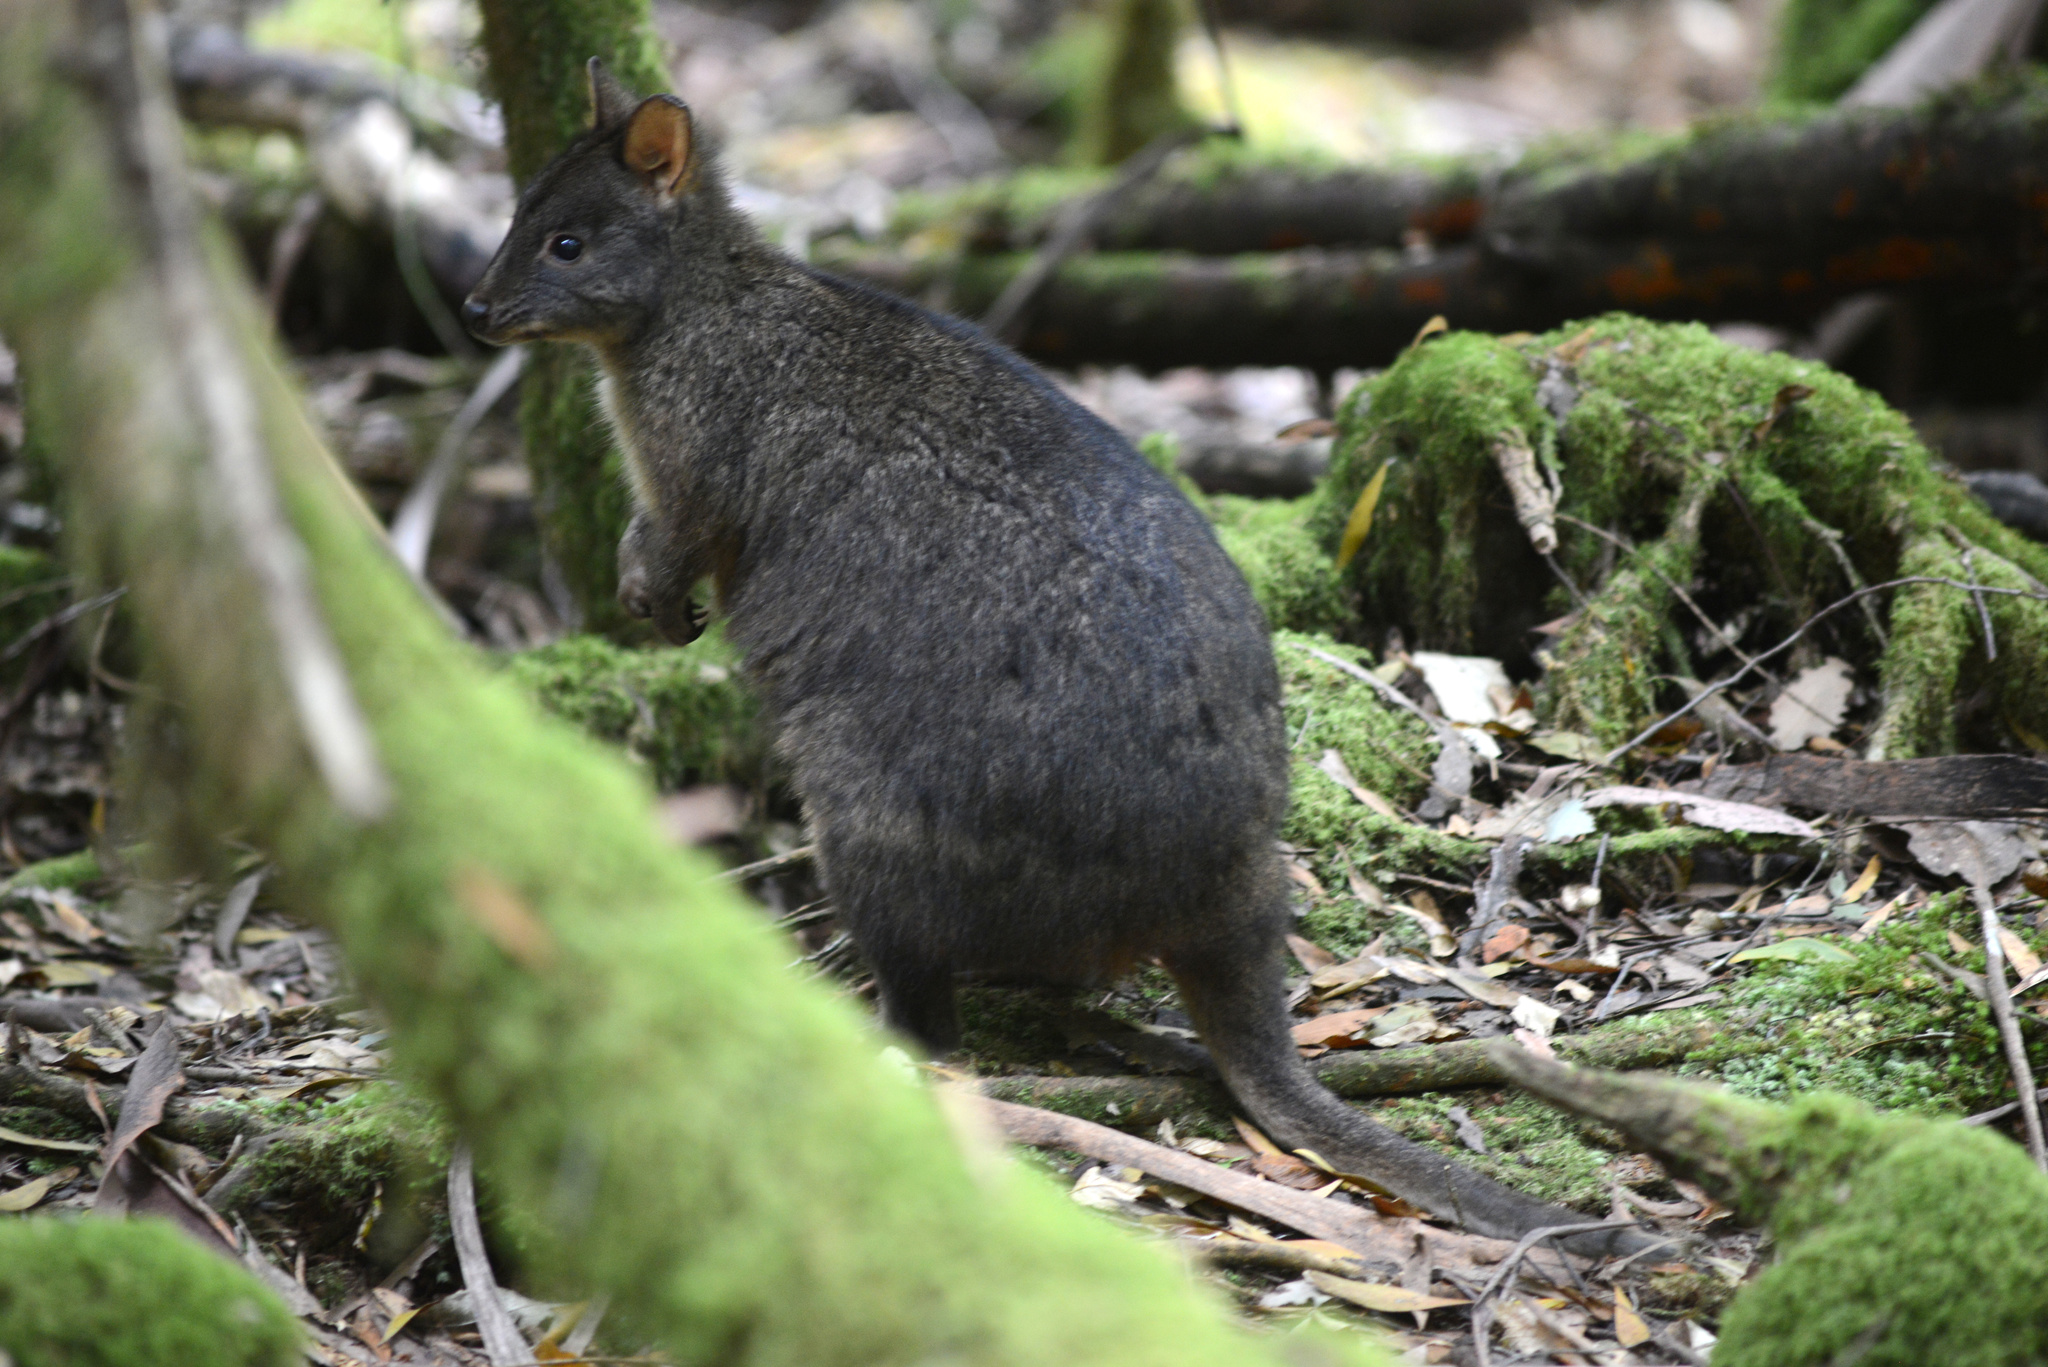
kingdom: Animalia
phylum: Chordata
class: Mammalia
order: Diprotodontia
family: Macropodidae
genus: Thylogale
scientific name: Thylogale billardierii
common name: Tasmanian pademelon
